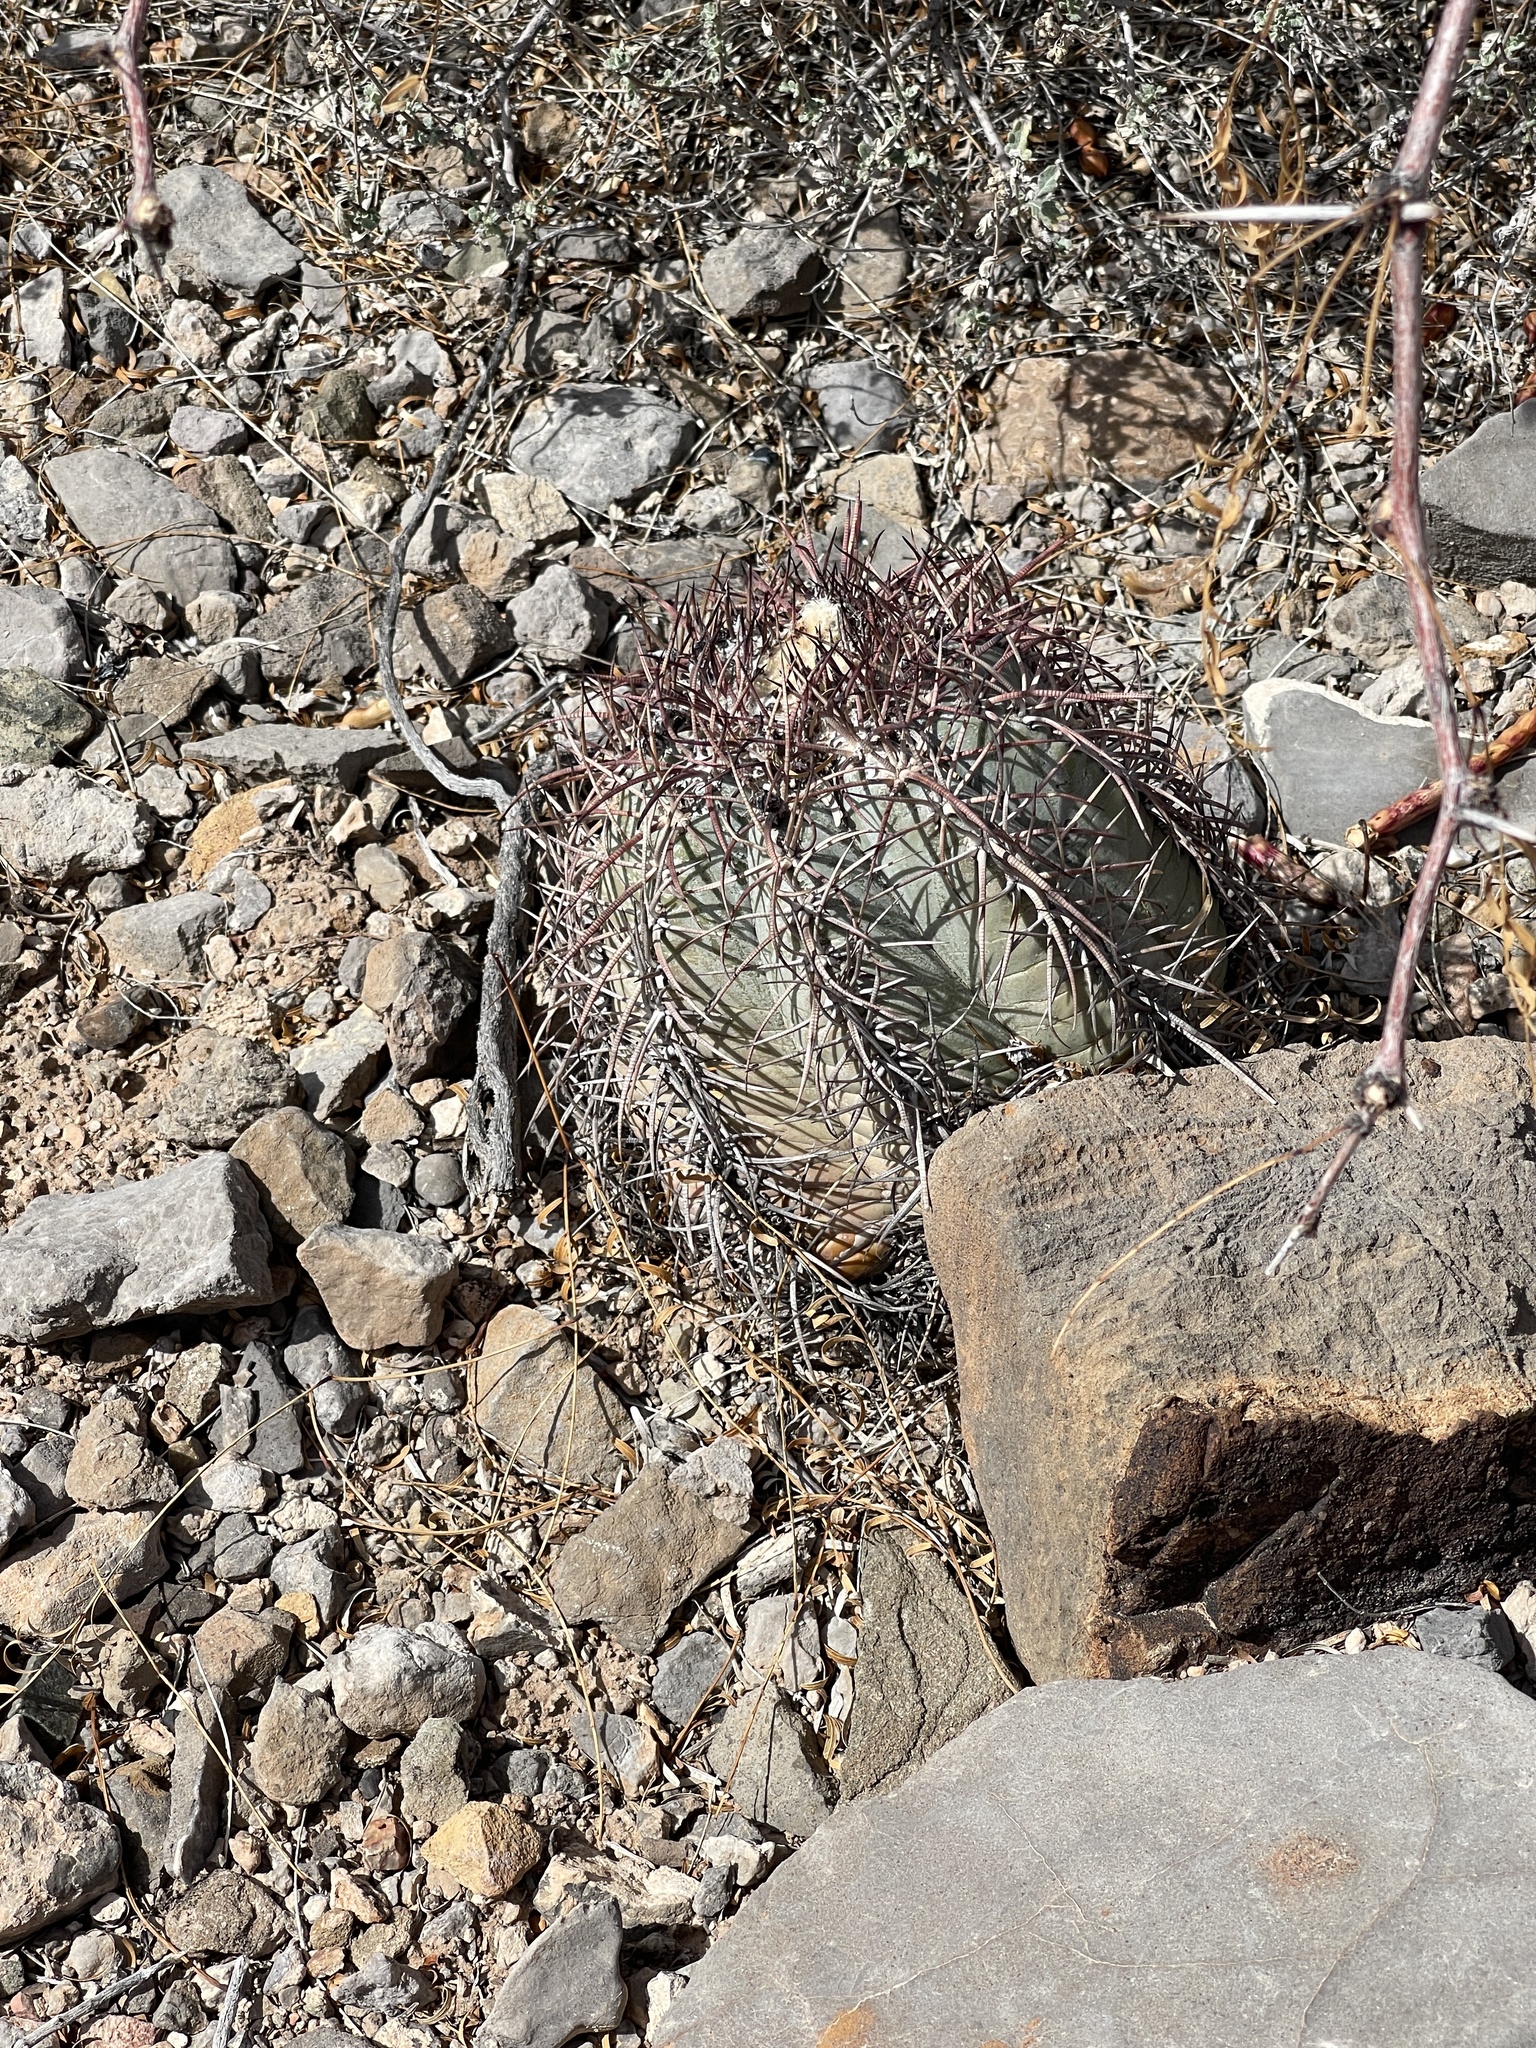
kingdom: Plantae
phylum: Tracheophyta
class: Magnoliopsida
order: Caryophyllales
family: Cactaceae
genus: Echinocactus
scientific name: Echinocactus horizonthalonius
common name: Devilshead
